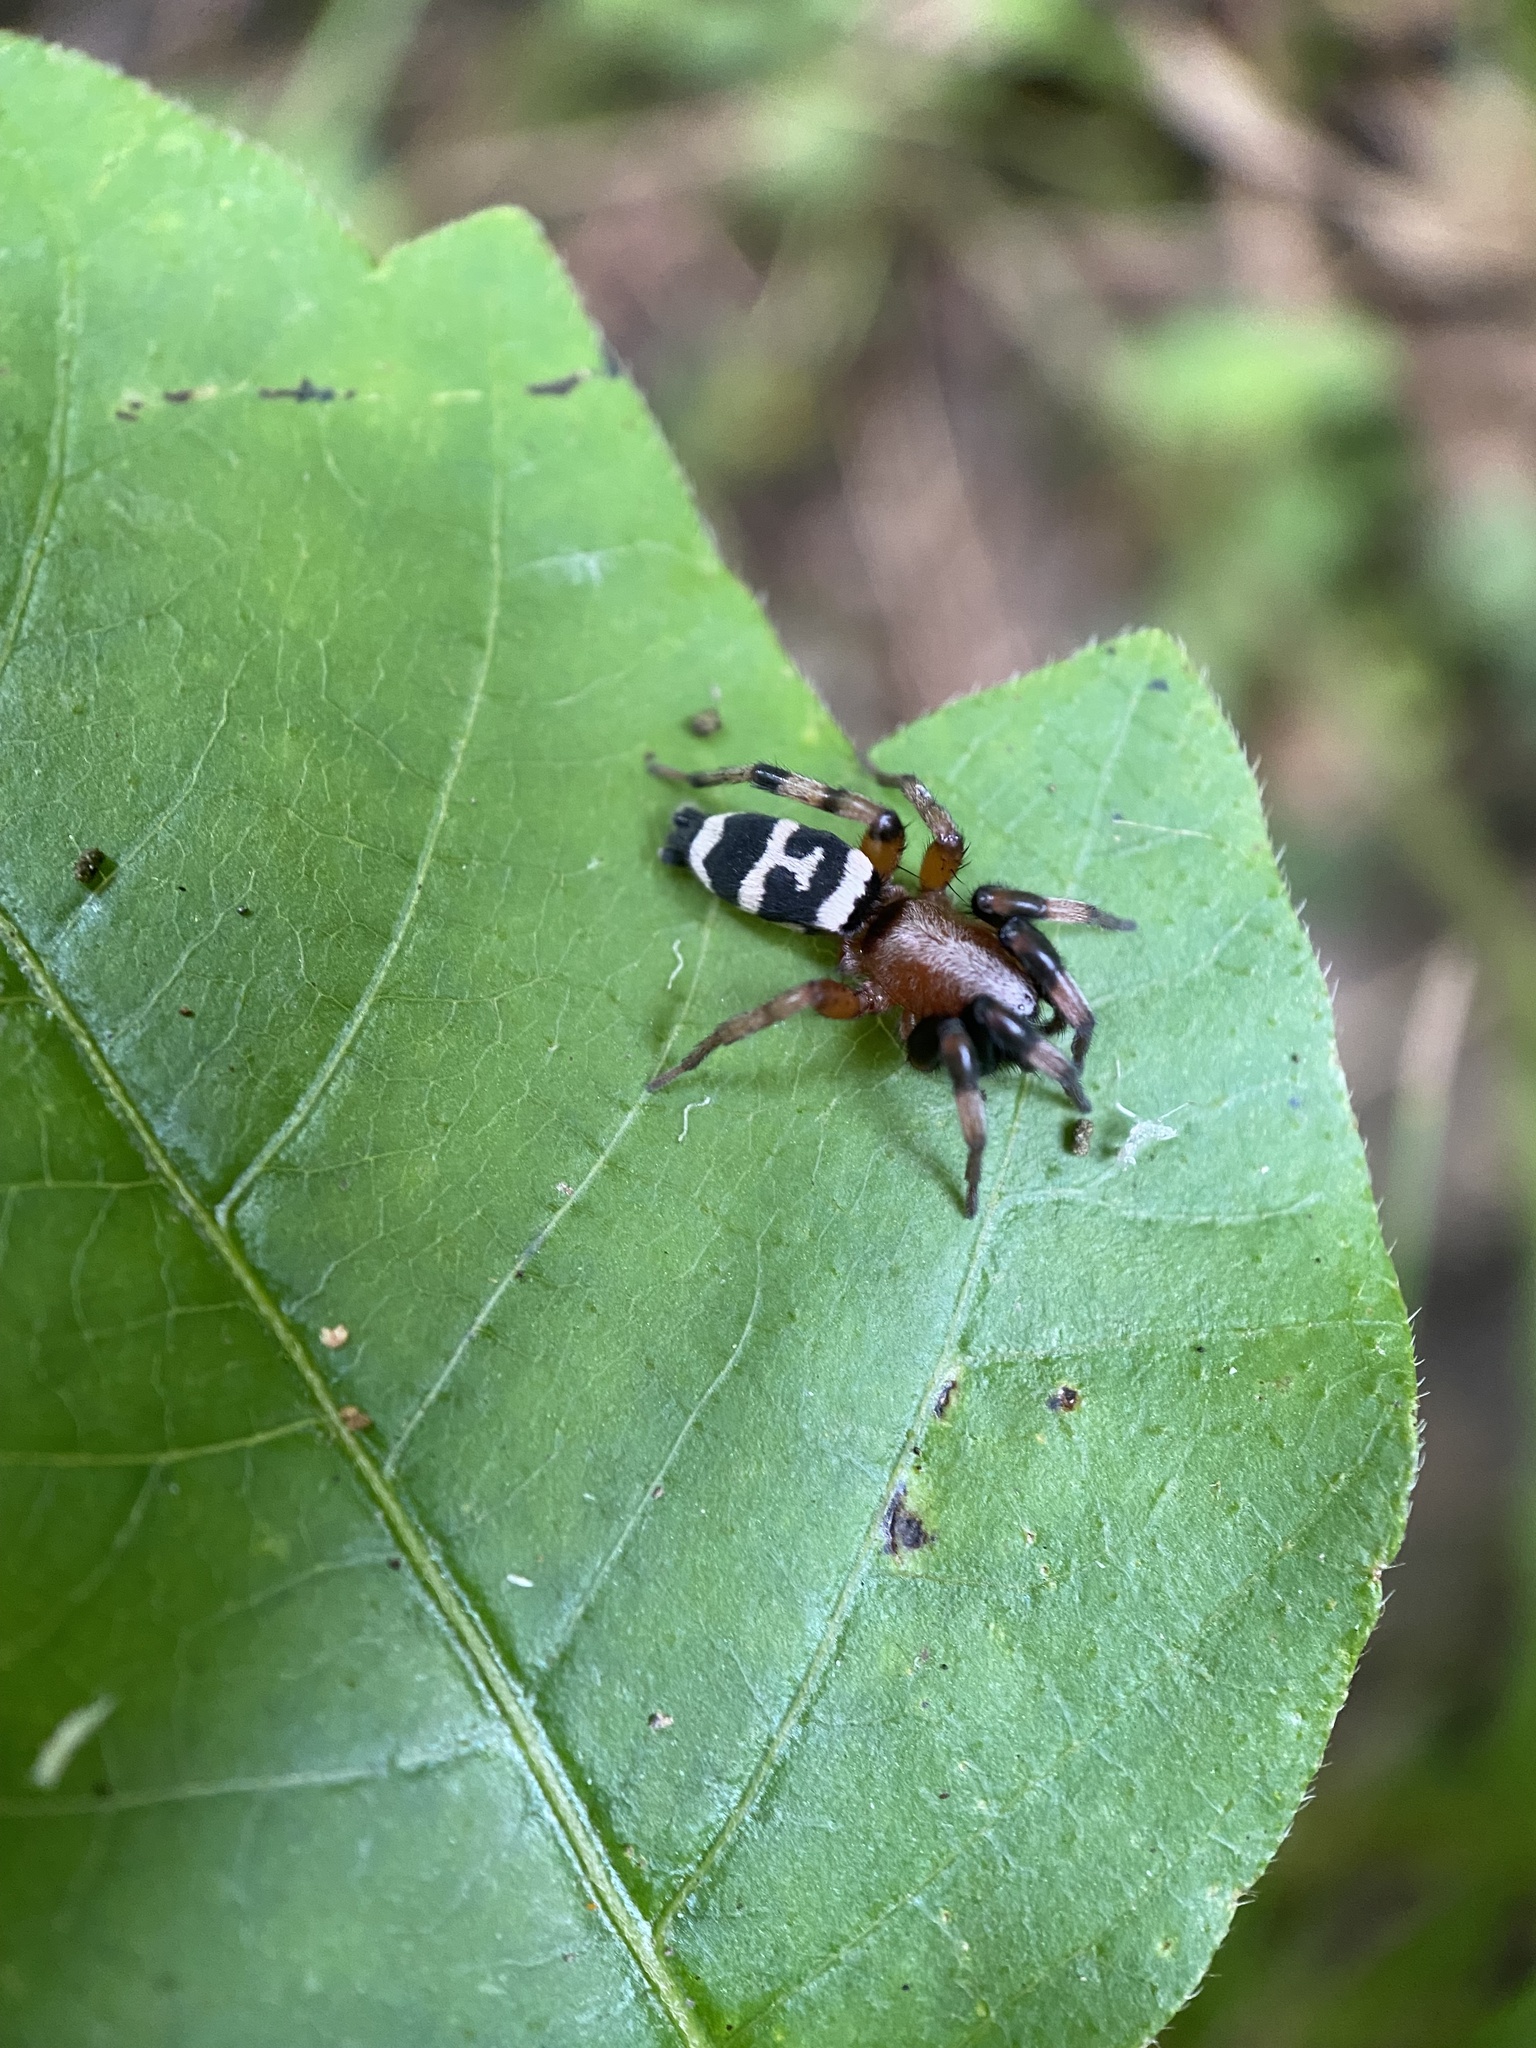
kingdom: Animalia
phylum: Arthropoda
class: Arachnida
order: Araneae
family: Gnaphosidae
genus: Sergiolus
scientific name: Sergiolus capulatus
